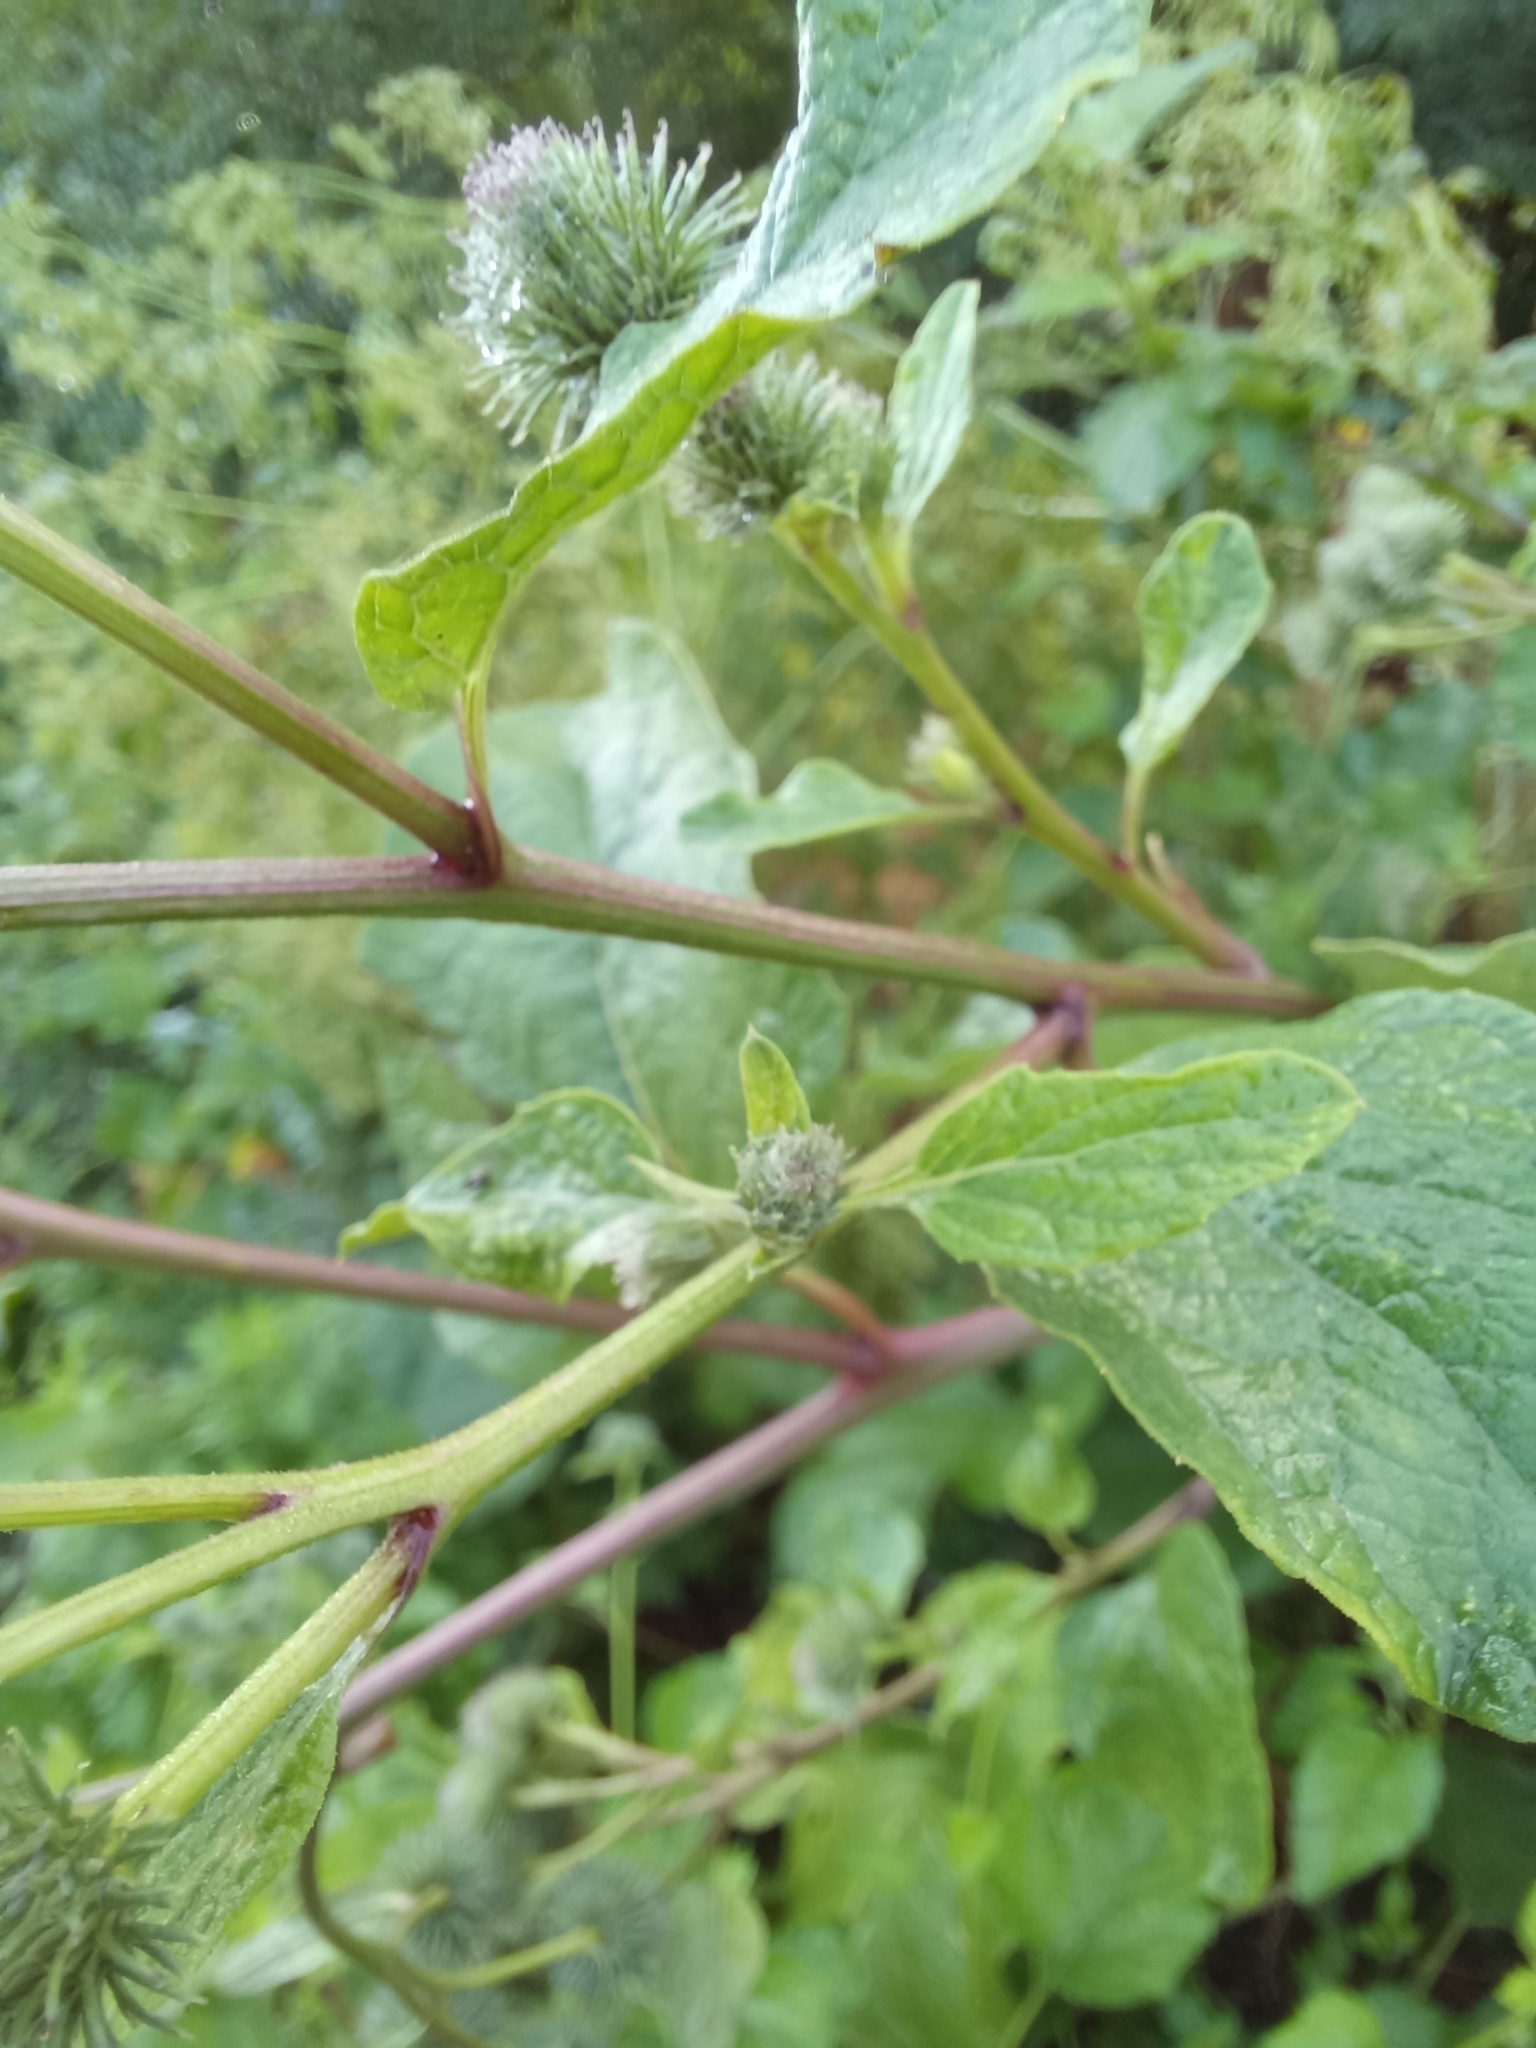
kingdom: Plantae
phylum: Tracheophyta
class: Magnoliopsida
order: Asterales
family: Asteraceae
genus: Arctium
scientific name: Arctium tomentosum
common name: Woolly burdock
